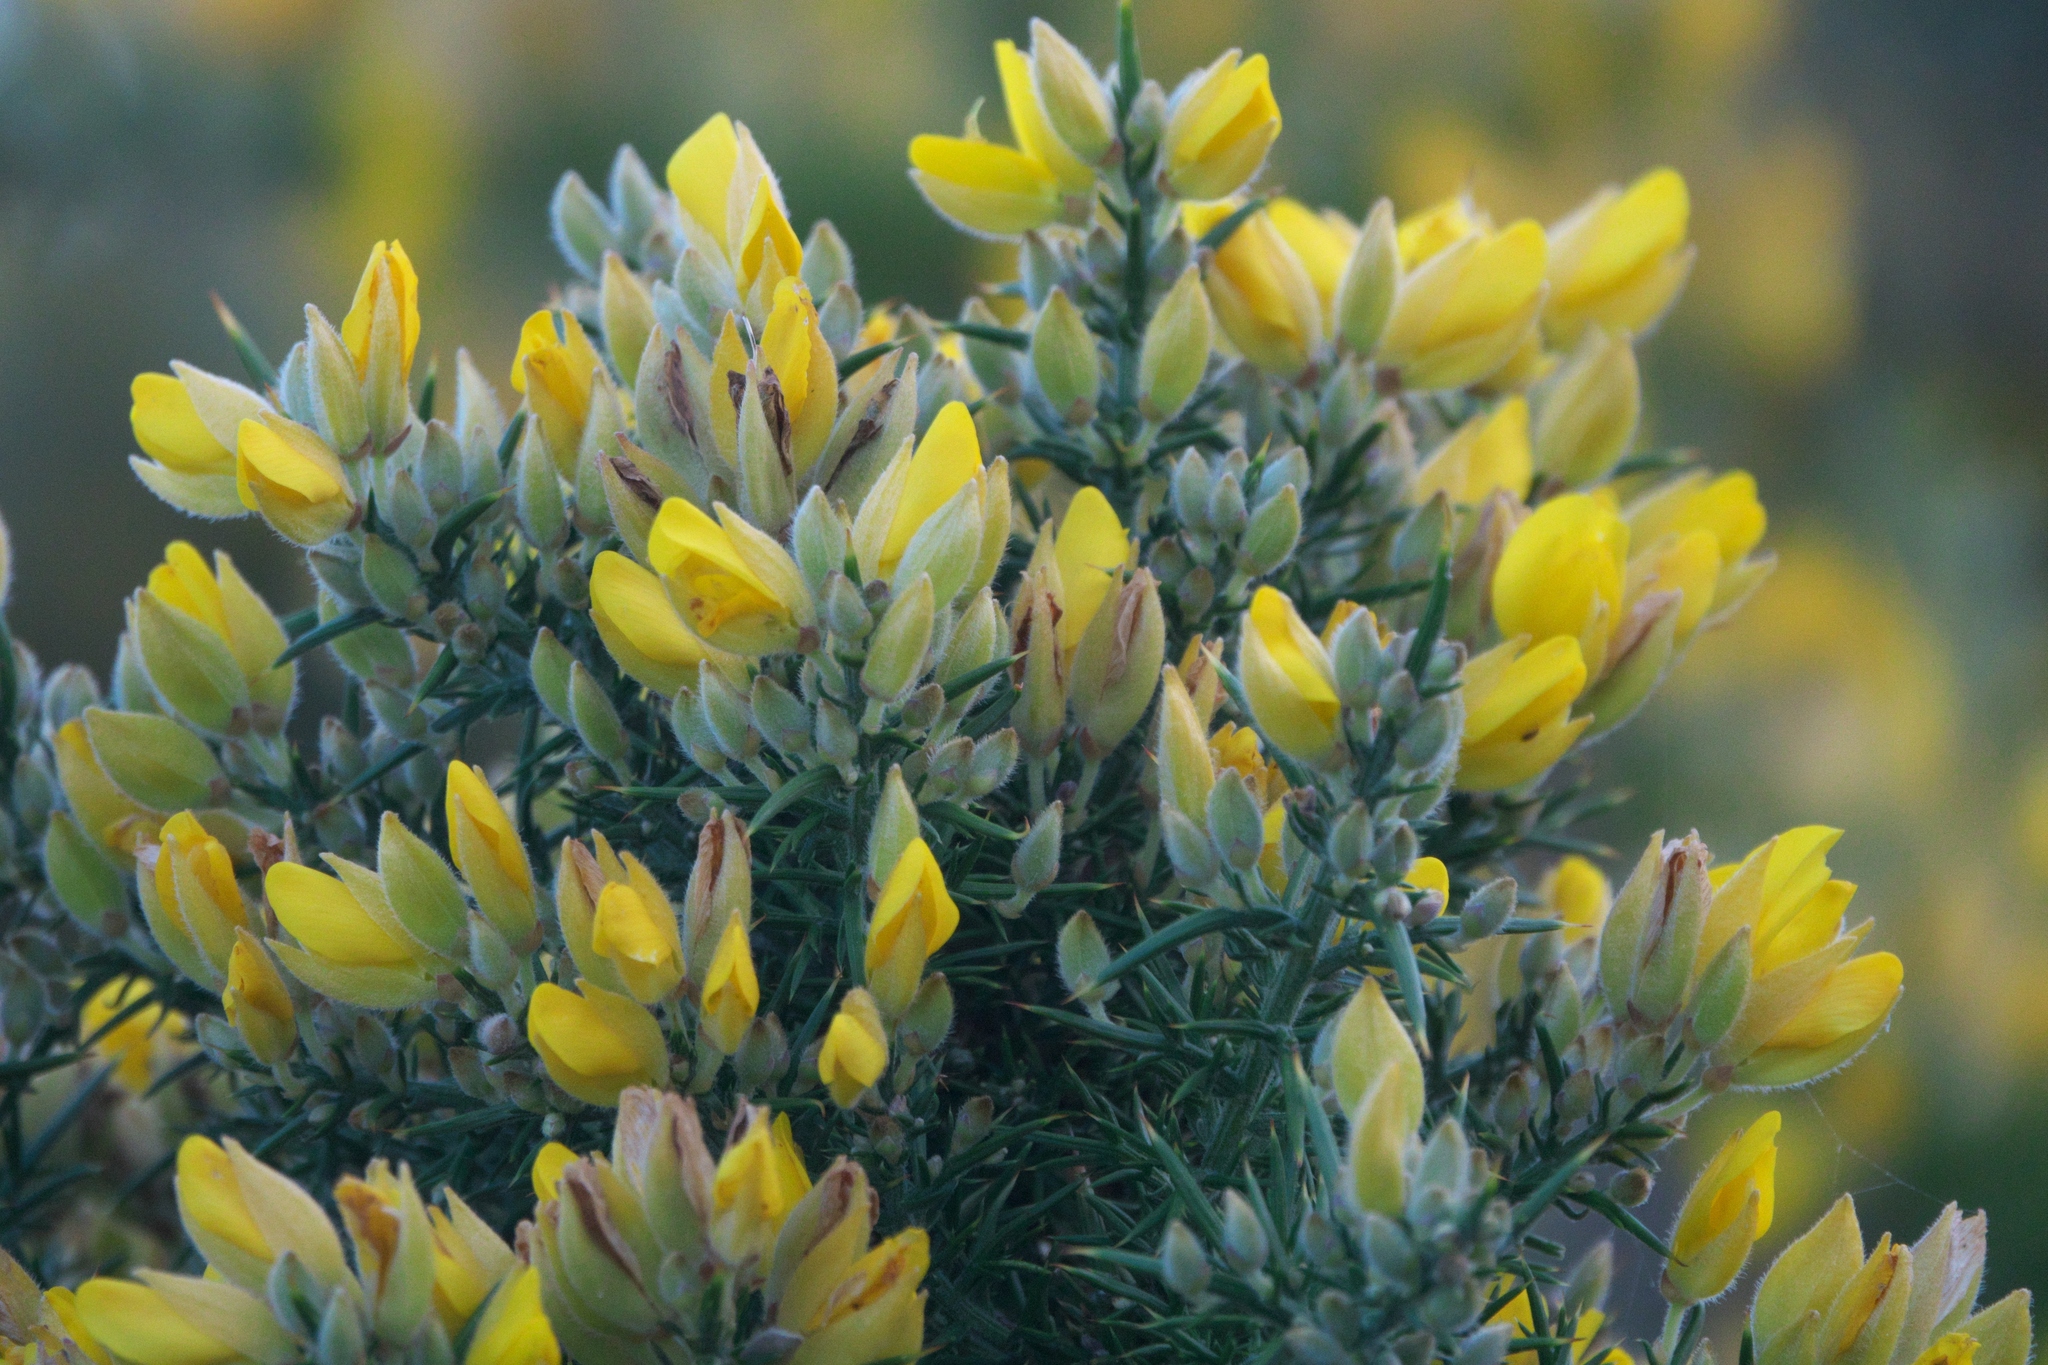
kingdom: Plantae
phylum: Tracheophyta
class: Magnoliopsida
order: Fabales
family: Fabaceae
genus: Ulex
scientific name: Ulex europaeus
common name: Common gorse
